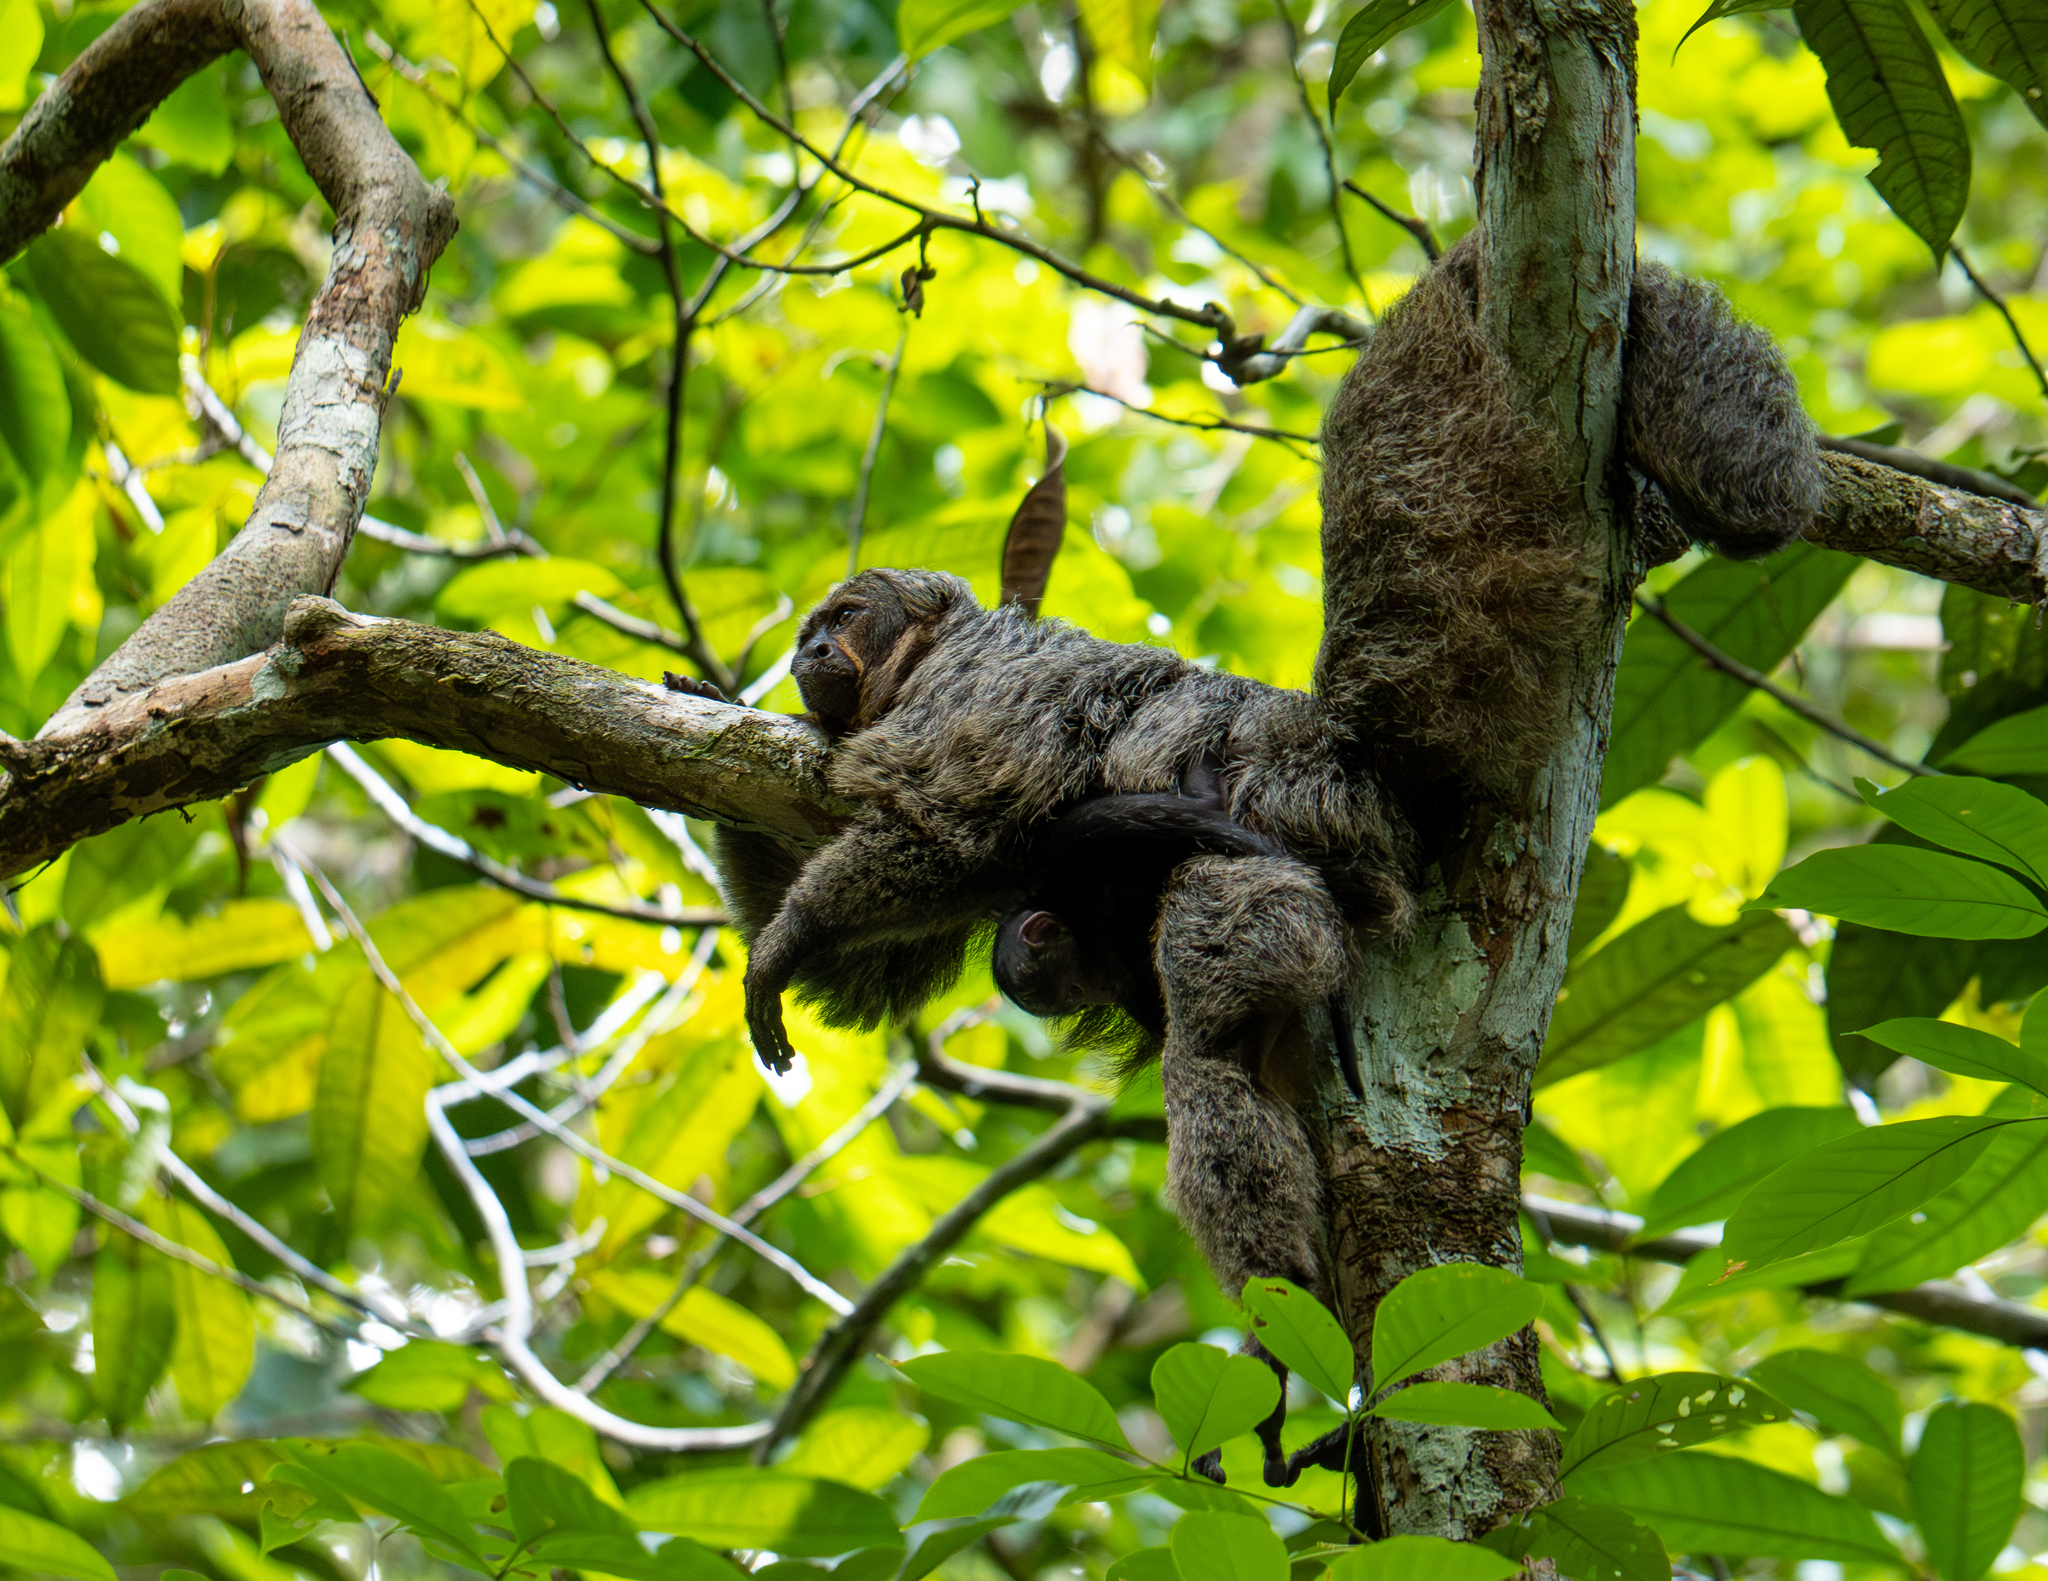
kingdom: Animalia
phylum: Chordata
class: Mammalia
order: Primates
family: Pitheciidae
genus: Pithecia
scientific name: Pithecia chrysocephala
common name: Golden-faced saki
